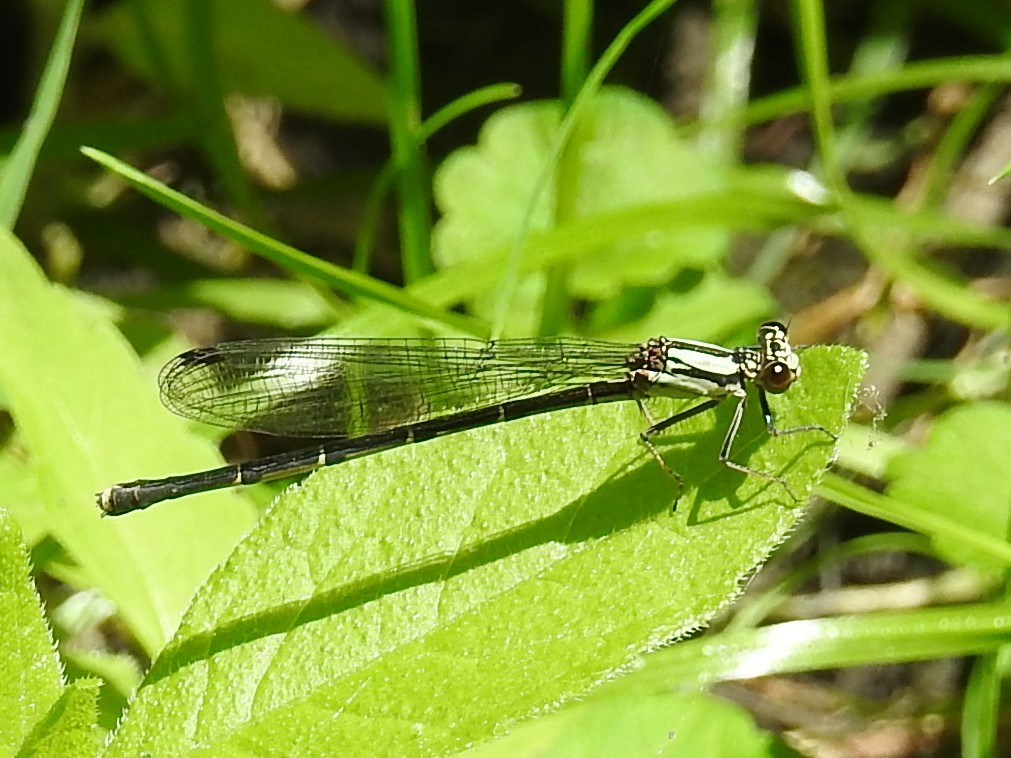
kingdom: Animalia
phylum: Arthropoda
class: Insecta
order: Odonata
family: Coenagrionidae
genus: Argia
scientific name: Argia tibialis
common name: Blue-tipped dancer
